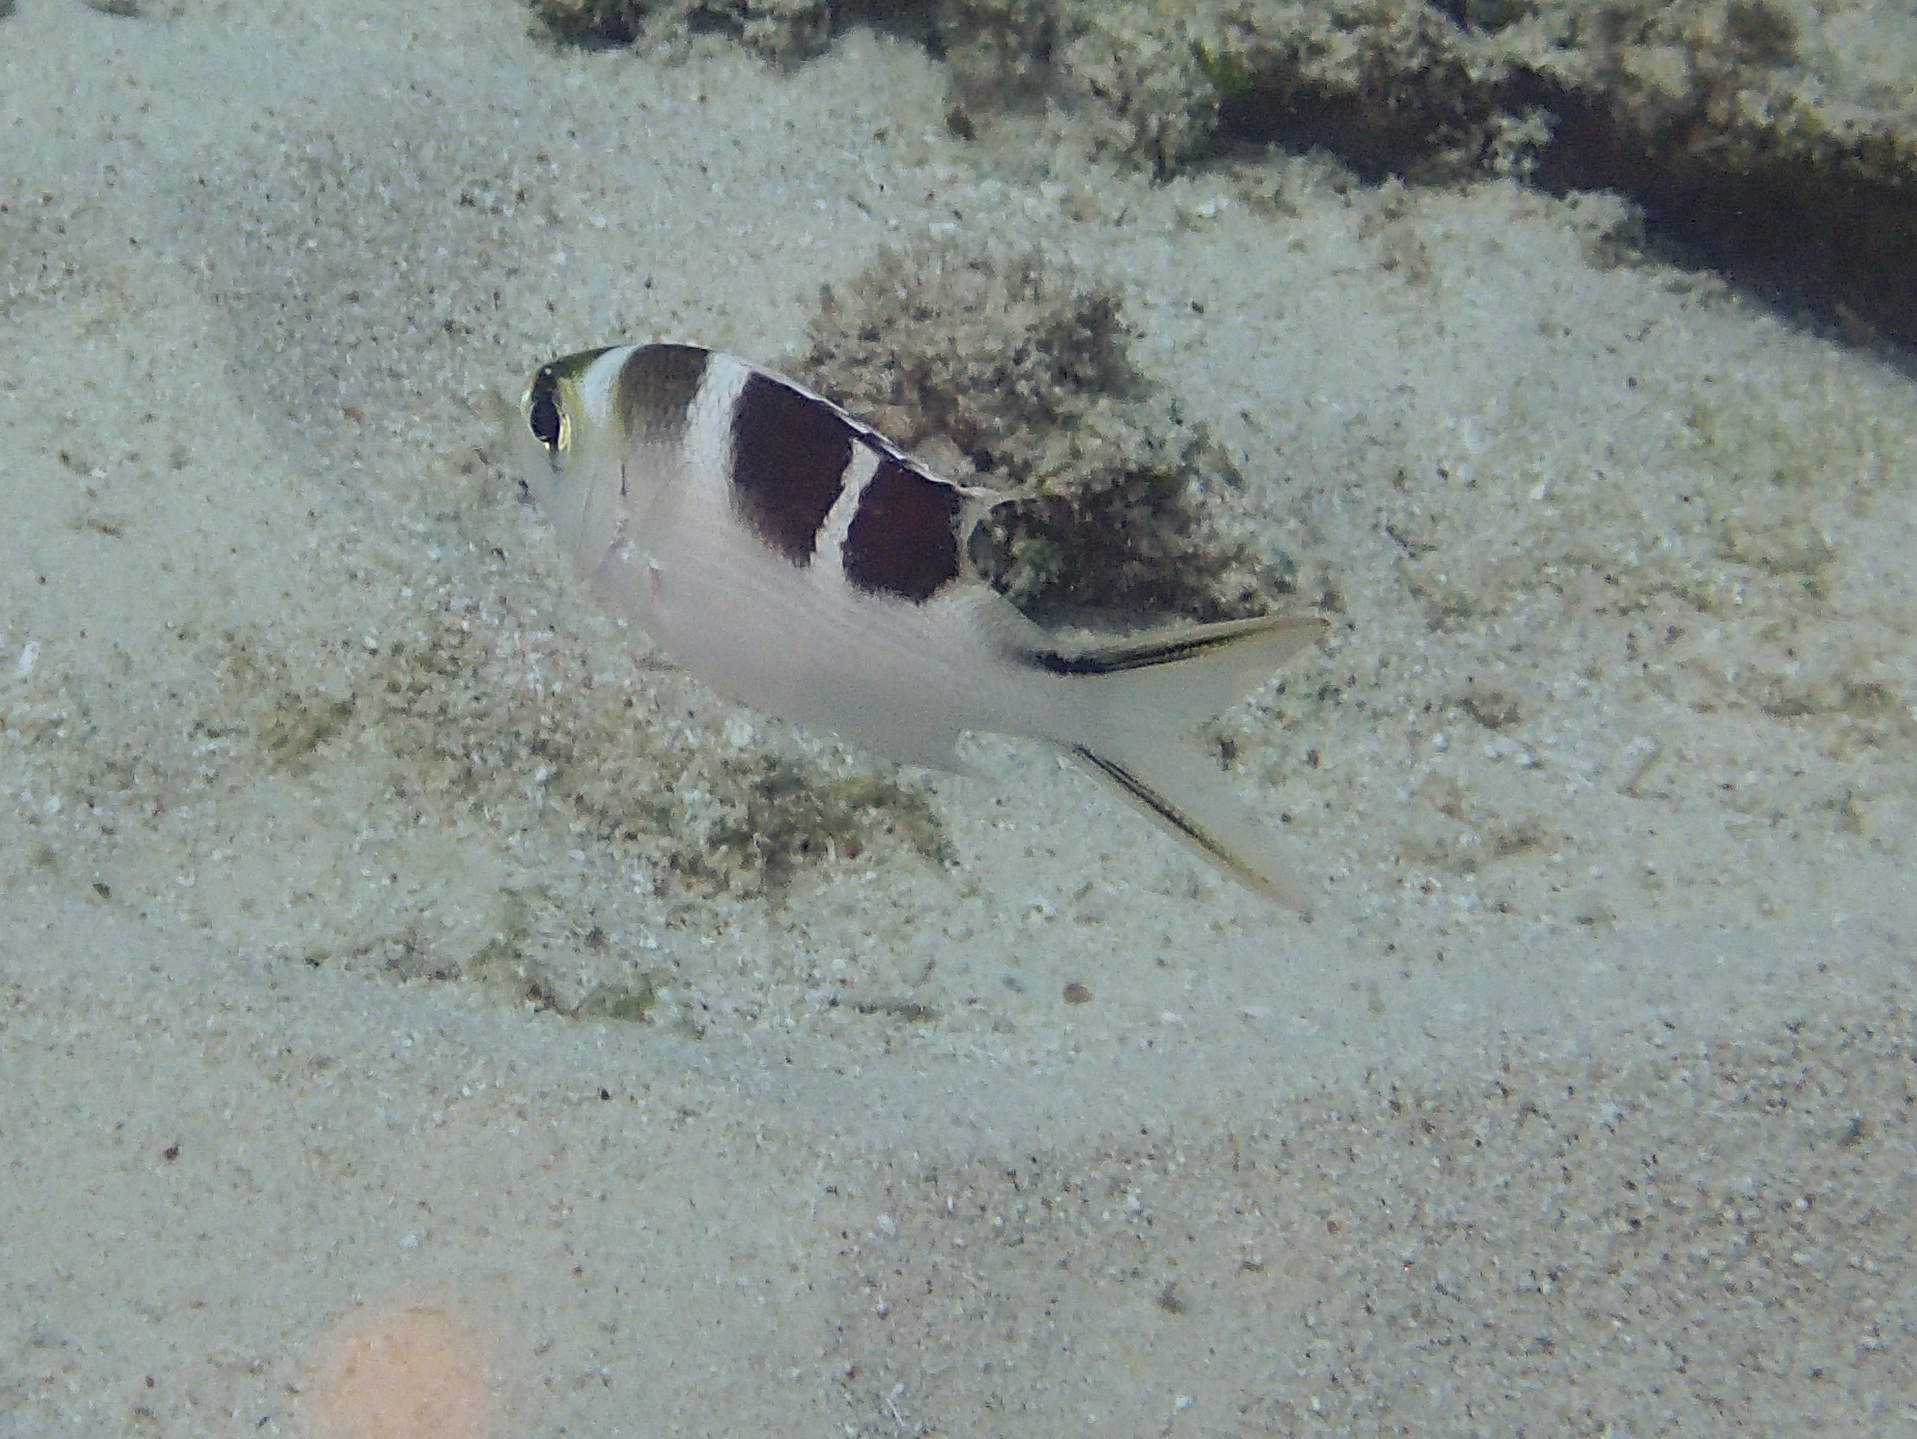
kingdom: Animalia
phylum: Chordata
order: Perciformes
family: Lethrinidae
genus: Monotaxis
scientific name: Monotaxis grandoculis
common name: Bigeye emperor
